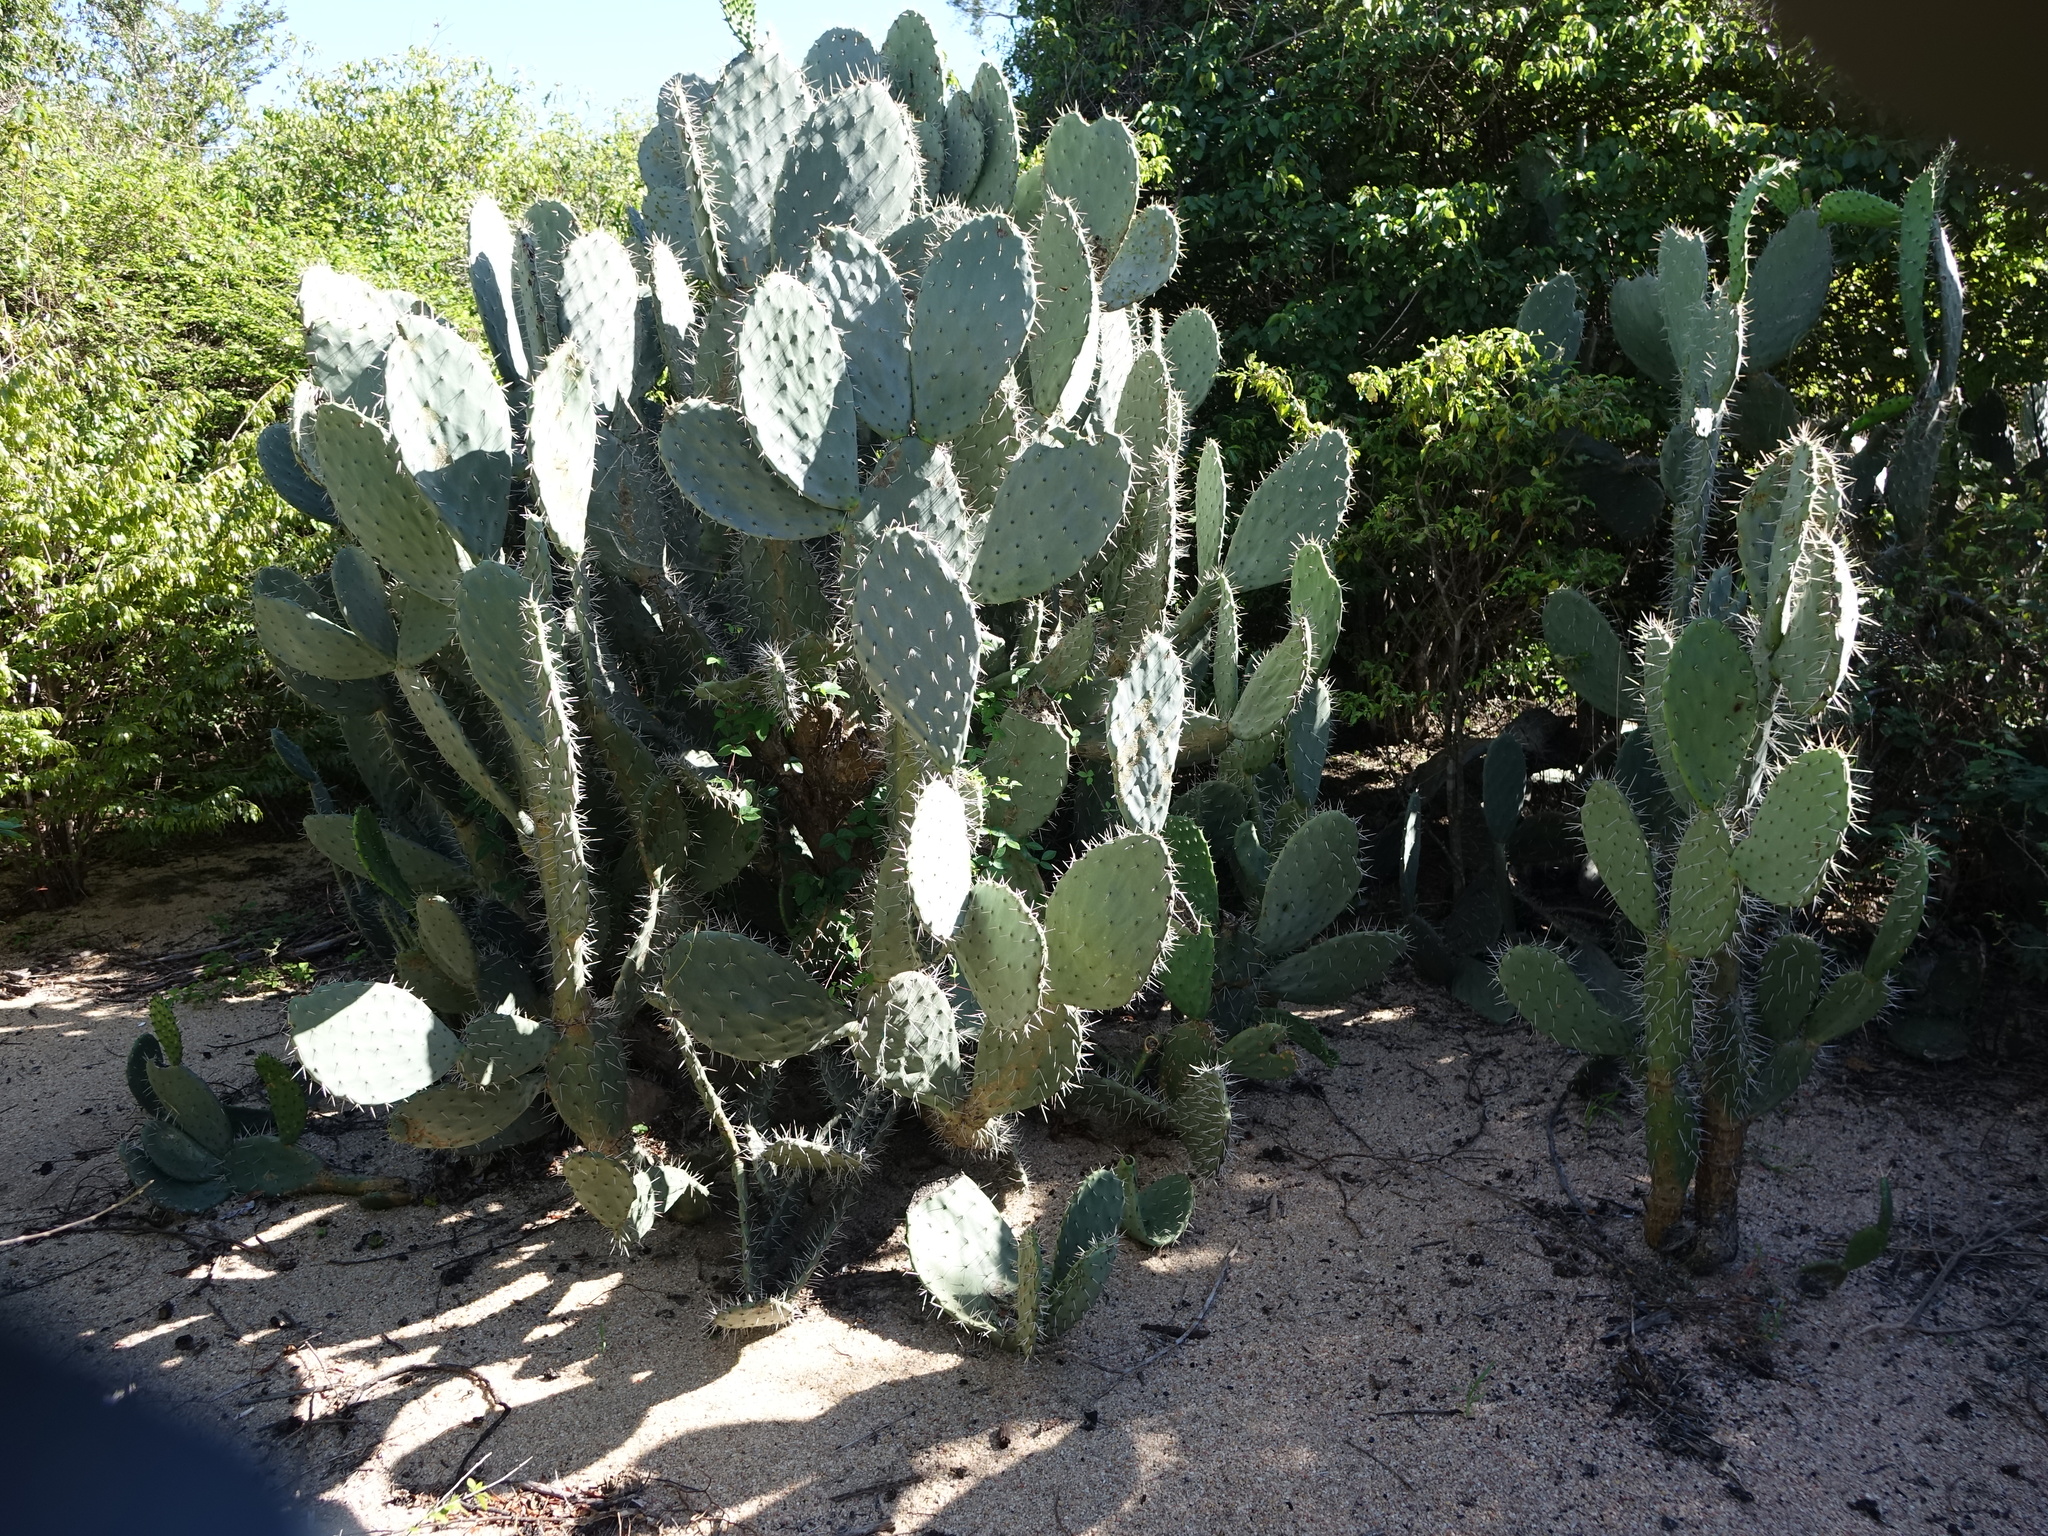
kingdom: Plantae
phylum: Tracheophyta
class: Magnoliopsida
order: Caryophyllales
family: Cactaceae
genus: Opuntia
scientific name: Opuntia ficus-indica
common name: Barbary fig
